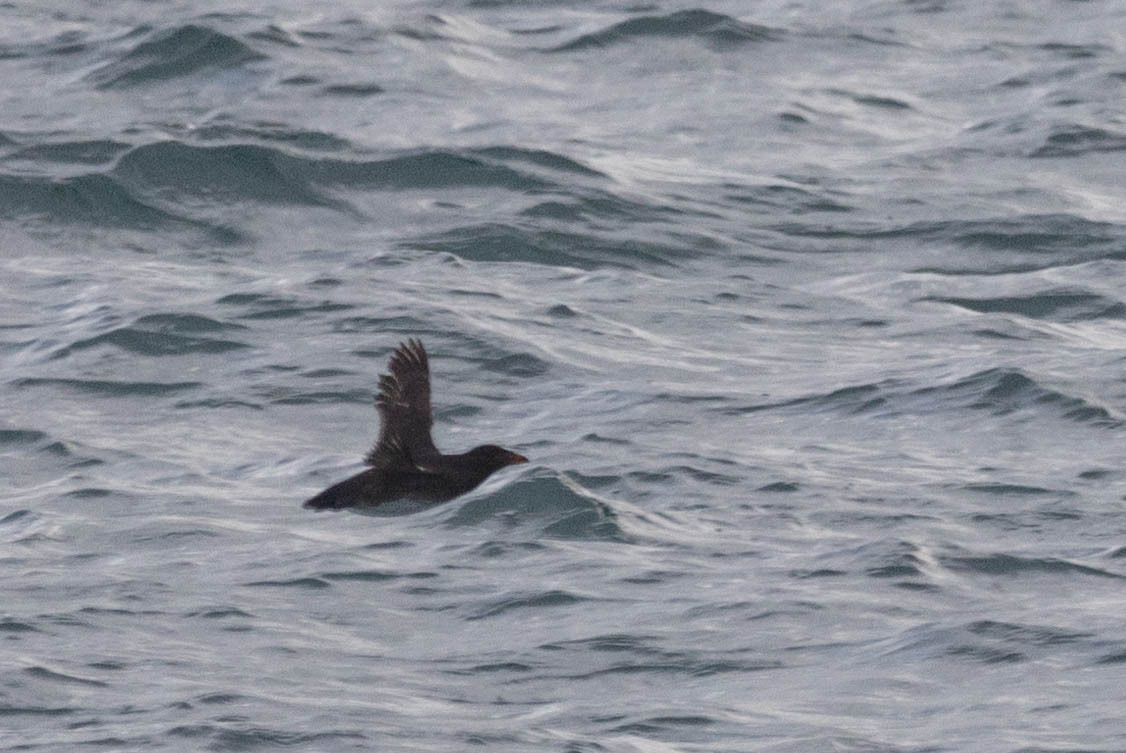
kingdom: Animalia
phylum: Chordata
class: Aves
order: Charadriiformes
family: Alcidae
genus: Cerorhinca
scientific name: Cerorhinca monocerata
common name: Rhinoceros auklet
